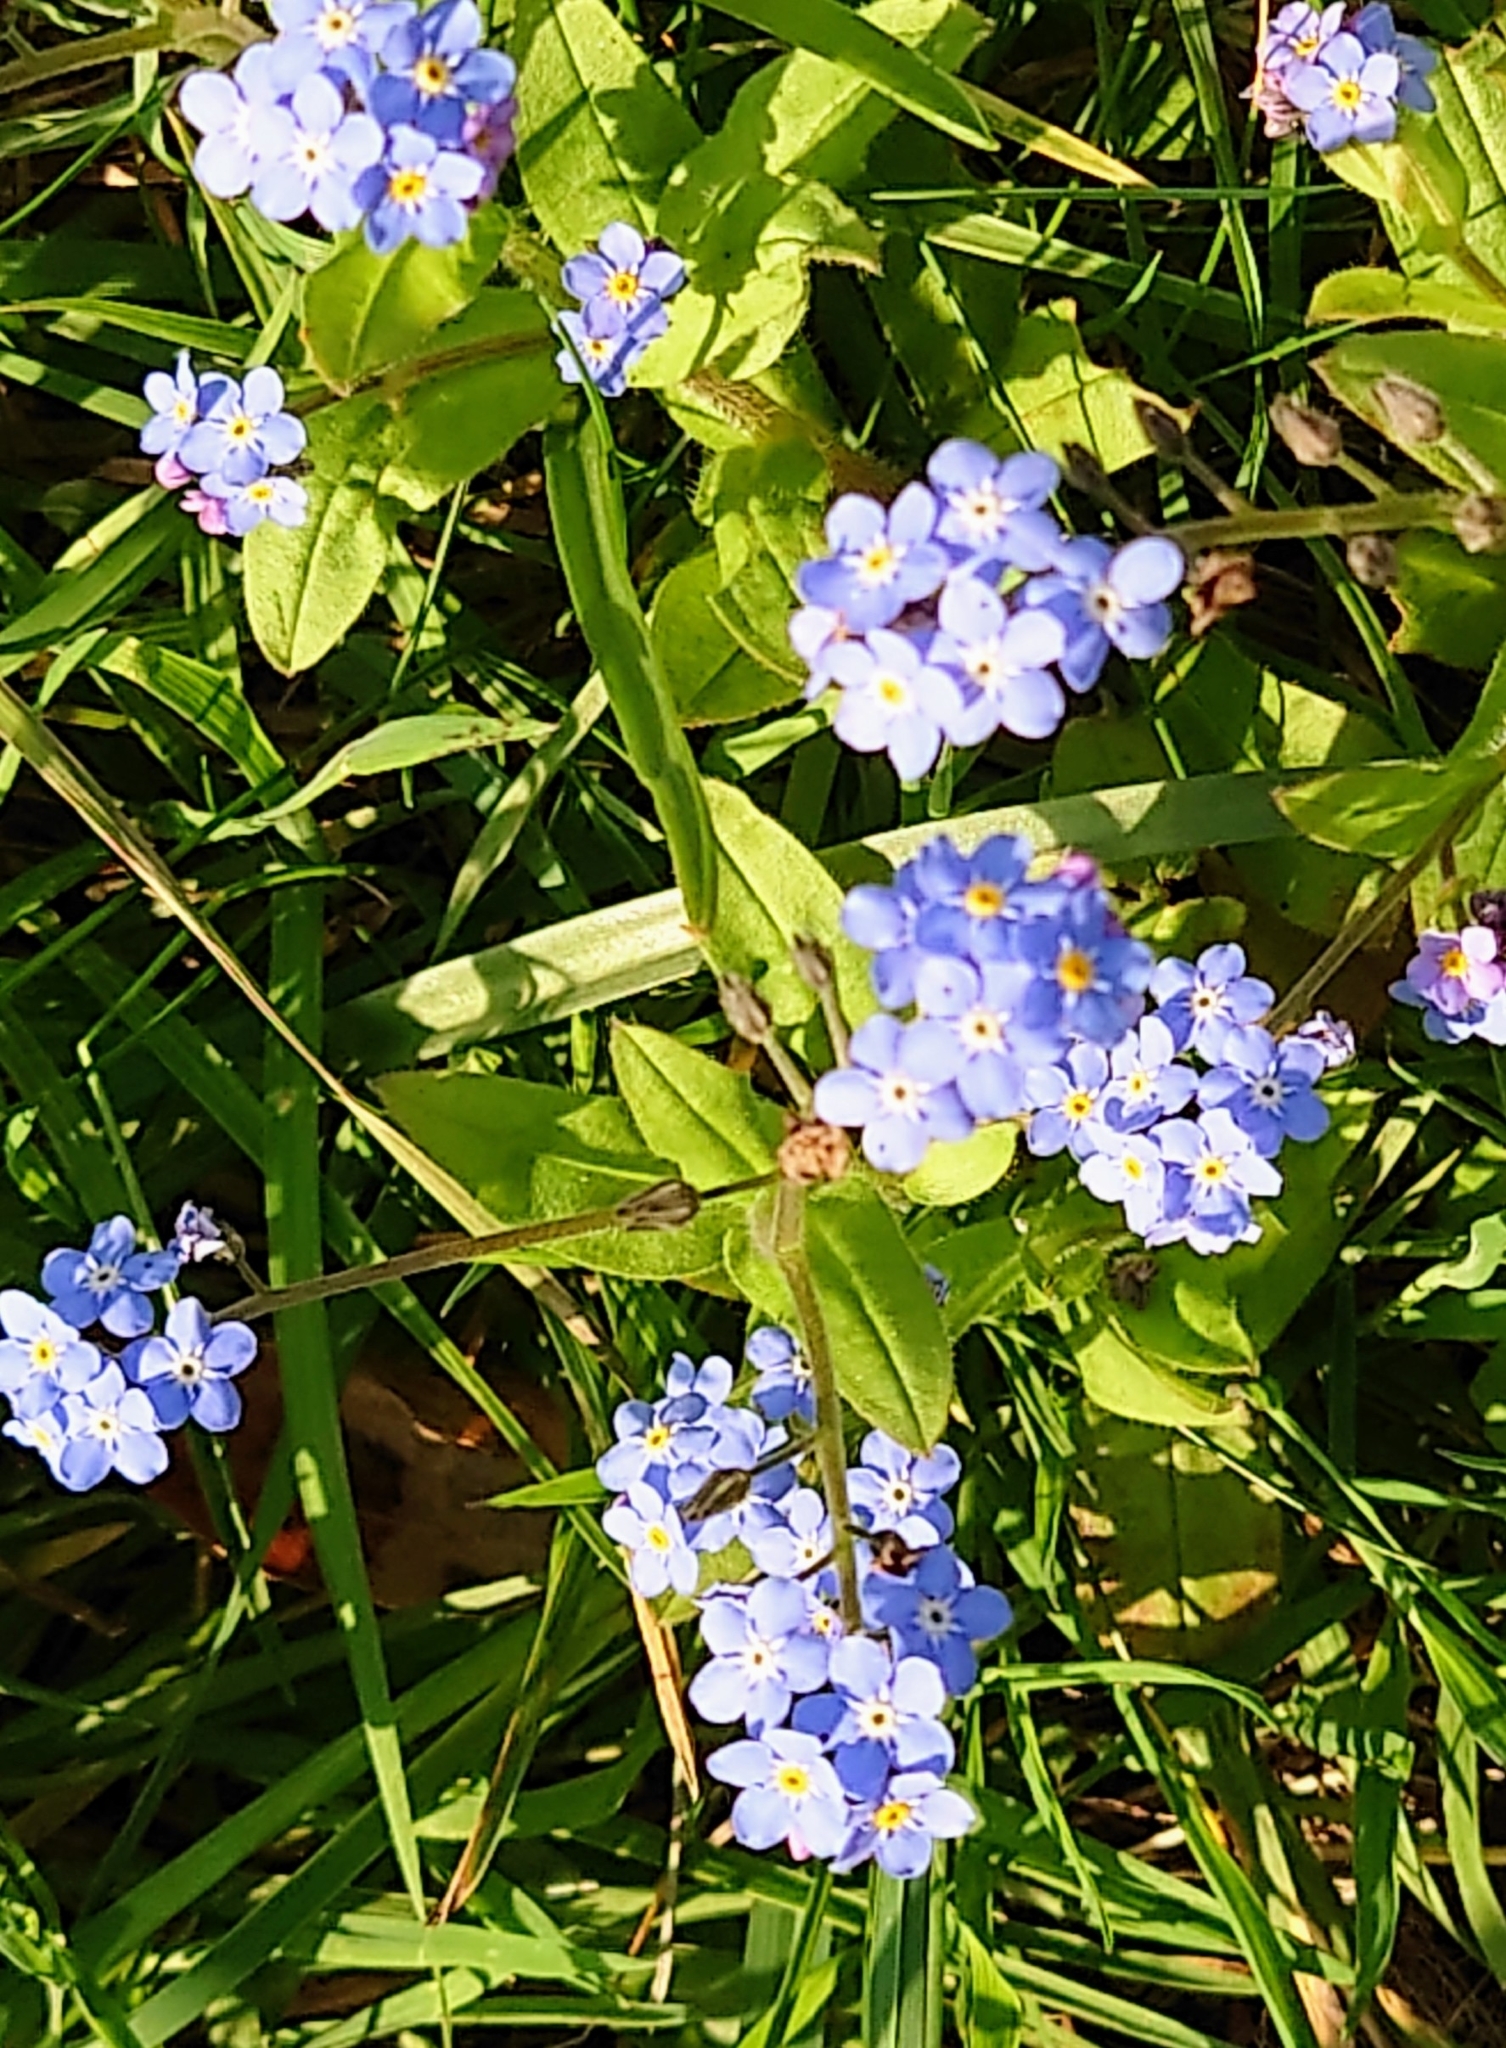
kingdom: Plantae
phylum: Tracheophyta
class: Magnoliopsida
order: Boraginales
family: Boraginaceae
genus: Myosotis
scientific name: Myosotis sylvatica
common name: Wood forget-me-not
